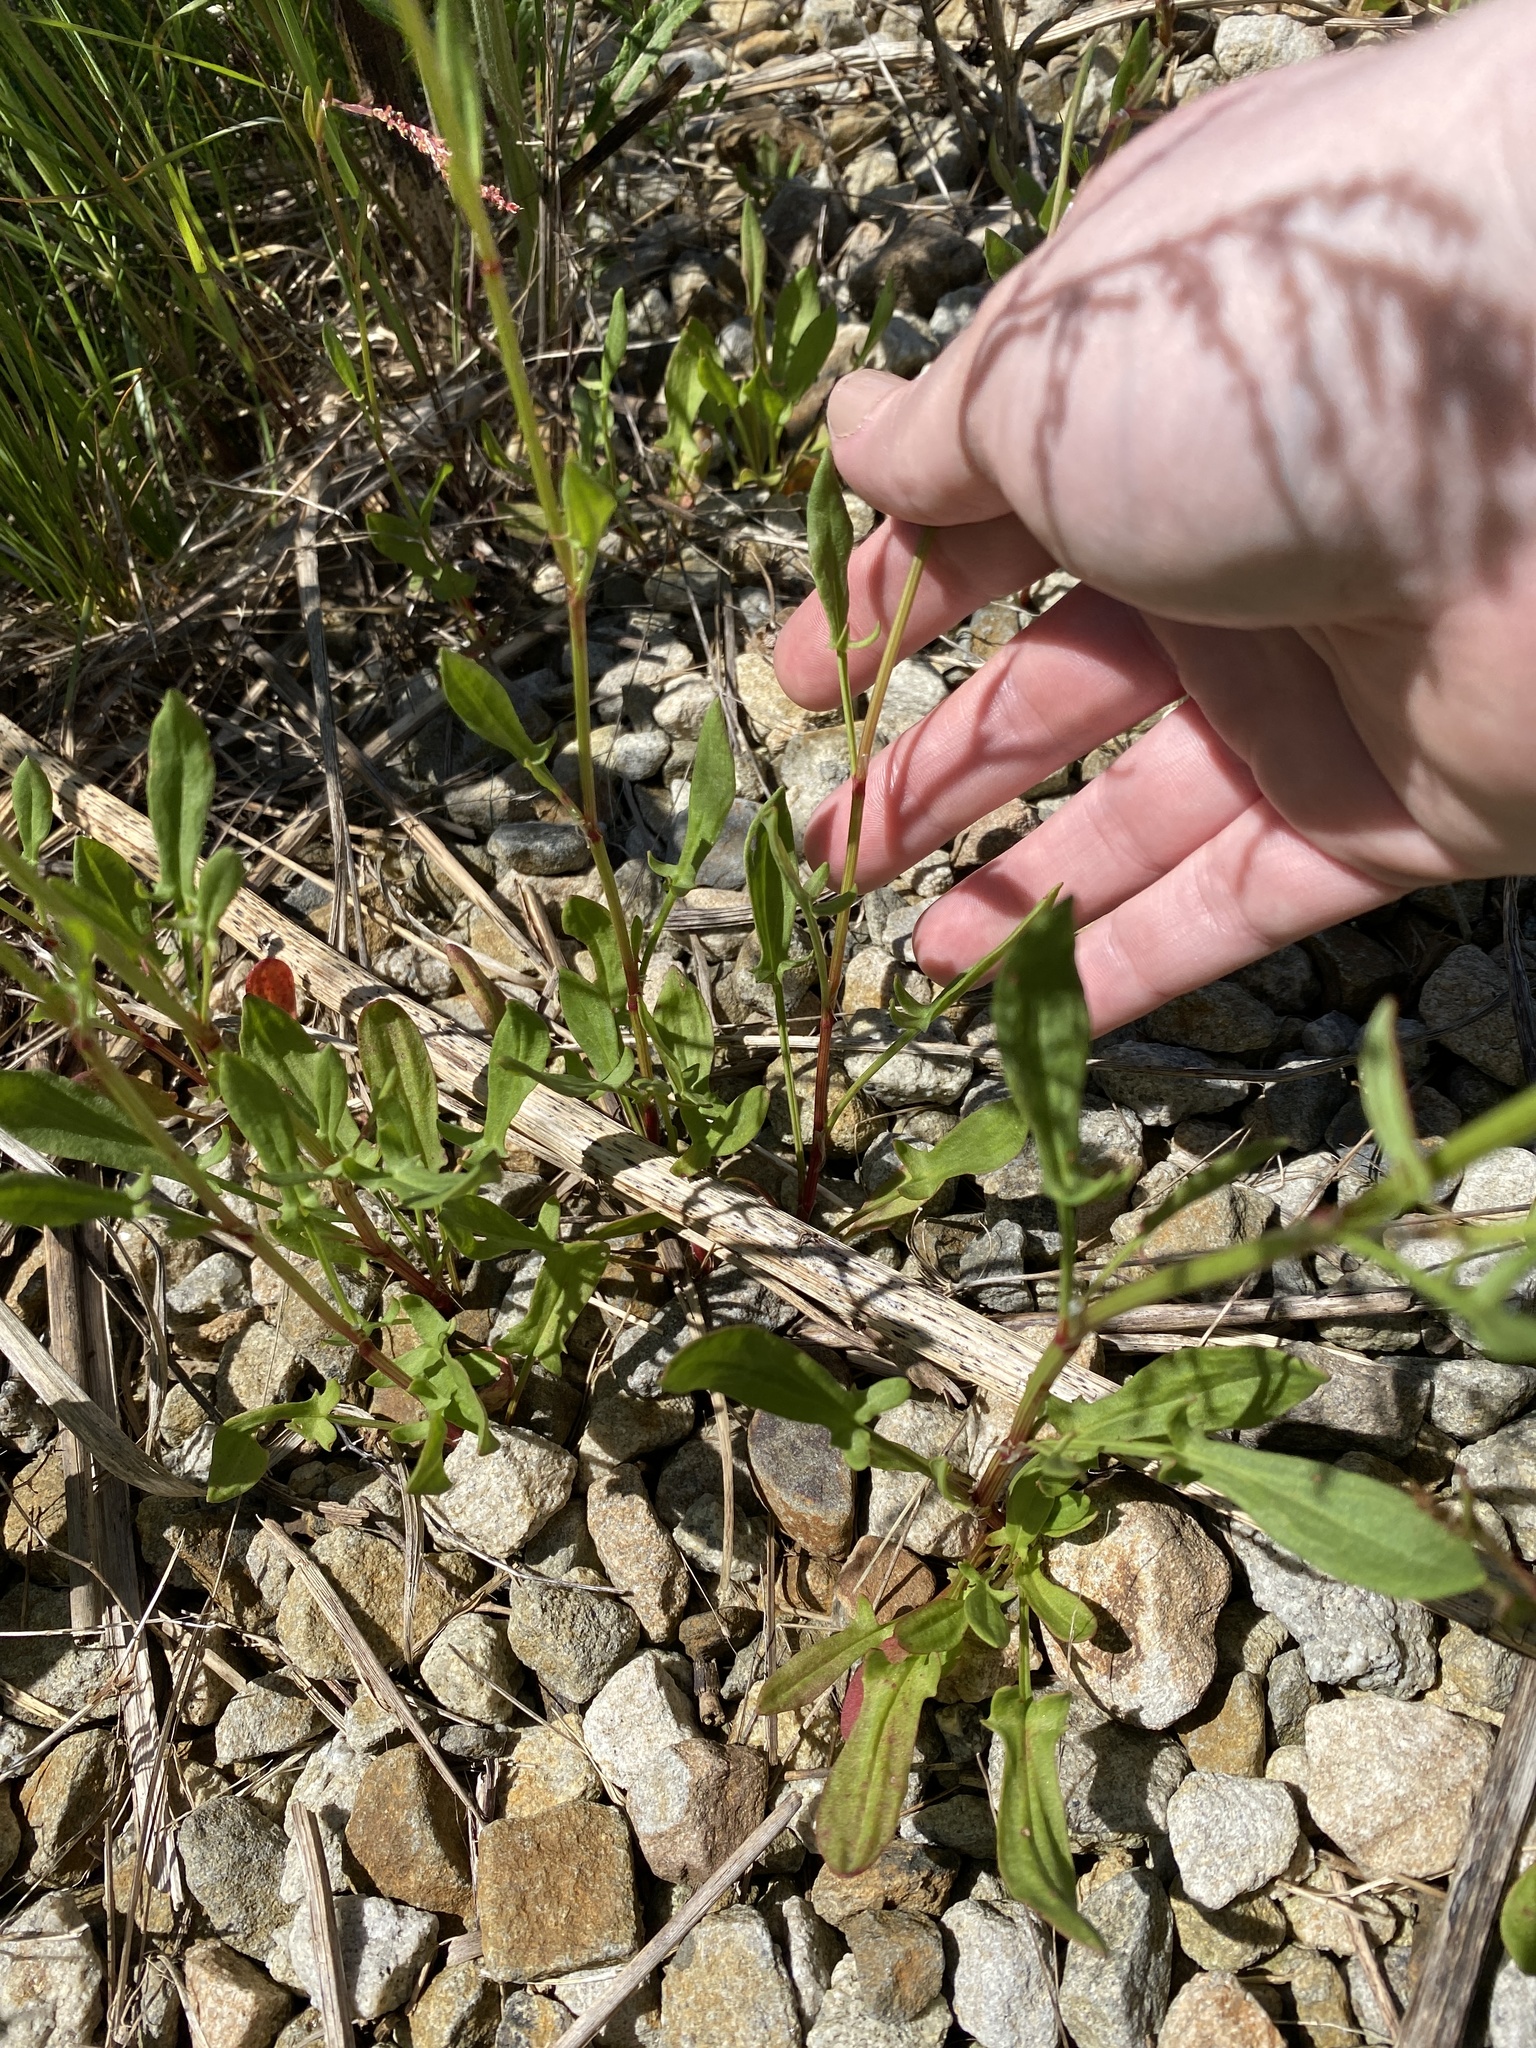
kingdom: Plantae
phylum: Tracheophyta
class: Magnoliopsida
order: Caryophyllales
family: Polygonaceae
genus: Rumex
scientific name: Rumex acetosella
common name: Common sheep sorrel
